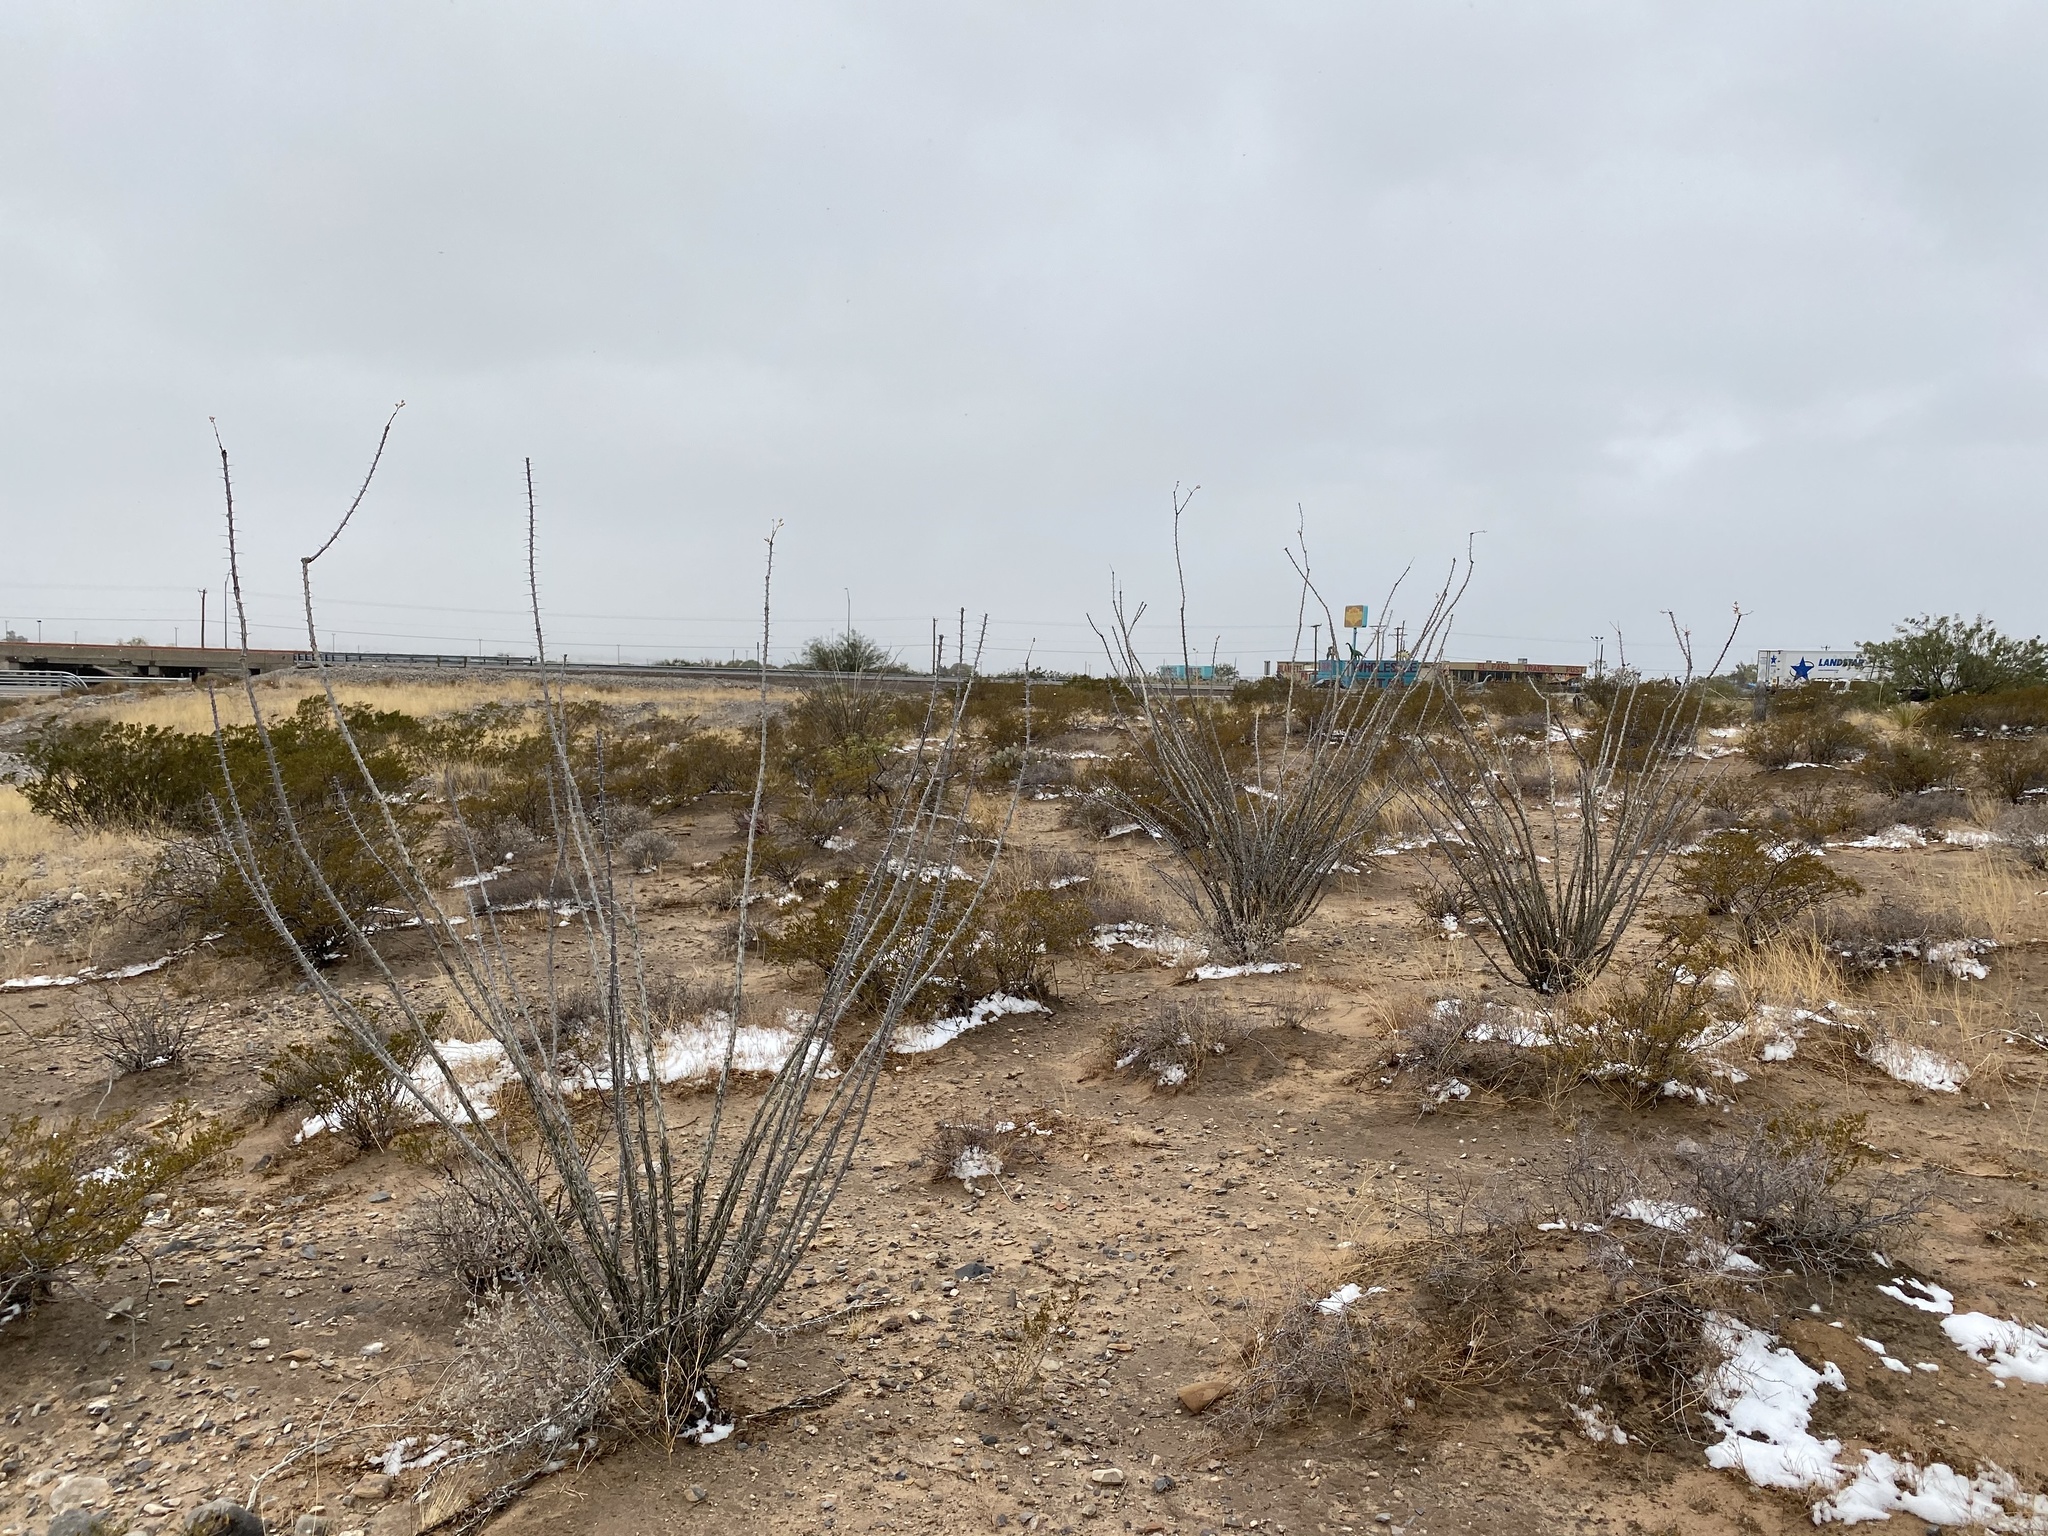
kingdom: Plantae
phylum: Tracheophyta
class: Magnoliopsida
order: Ericales
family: Fouquieriaceae
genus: Fouquieria
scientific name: Fouquieria splendens
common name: Vine-cactus
